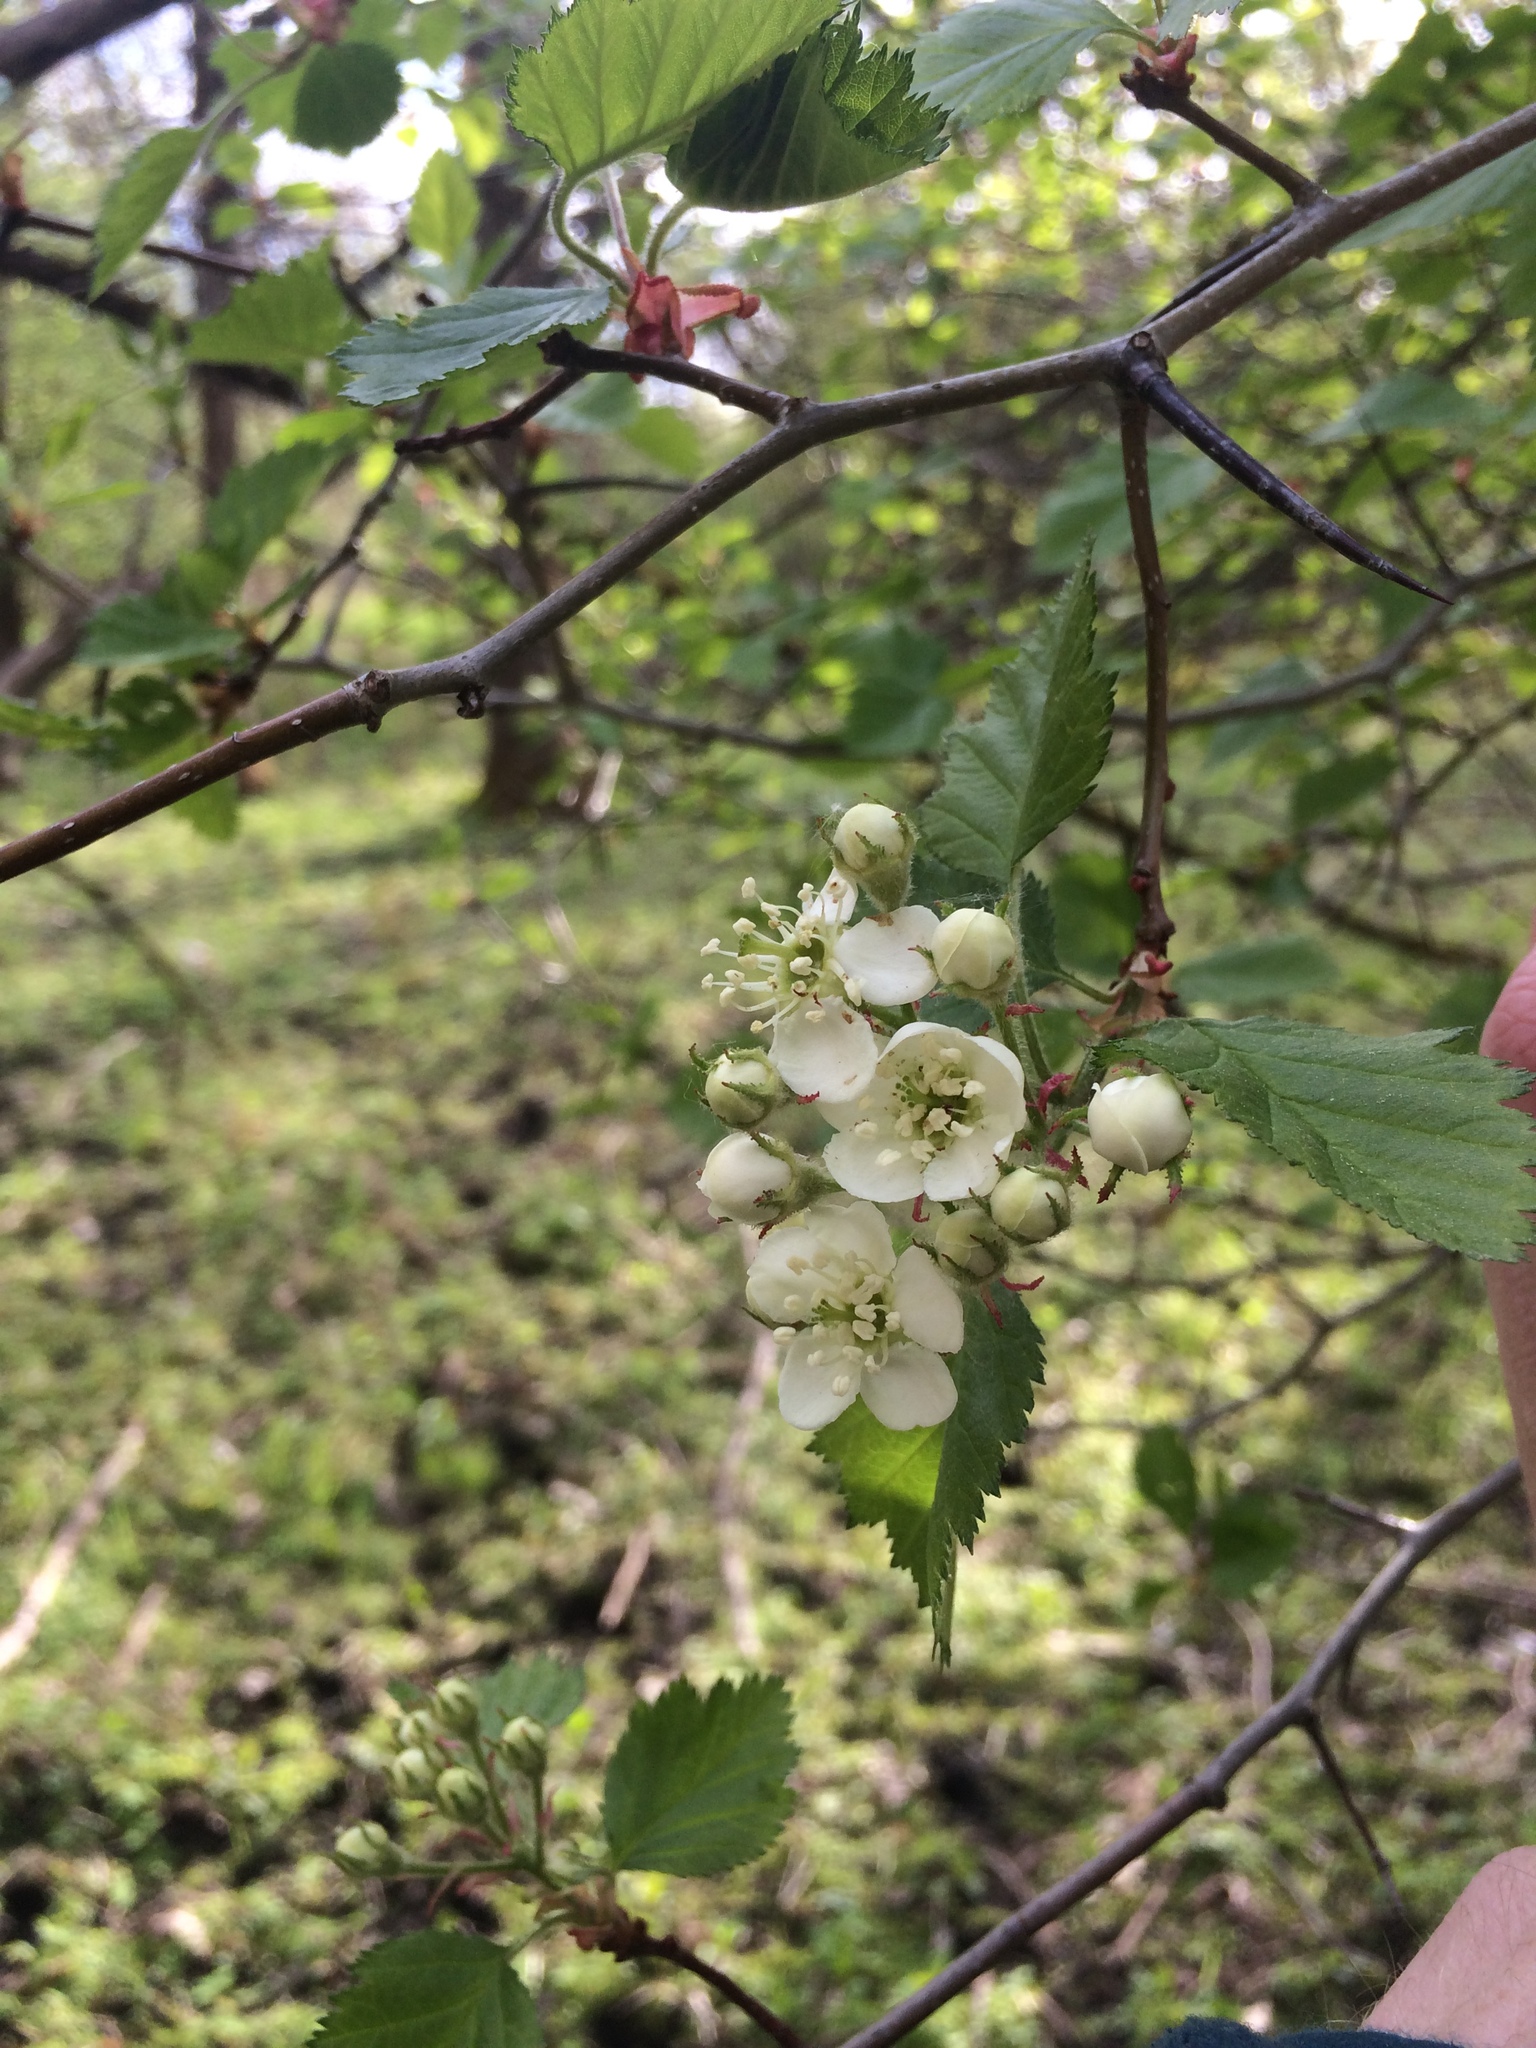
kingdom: Plantae
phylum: Tracheophyta
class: Magnoliopsida
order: Rosales
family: Rosaceae
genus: Crataegus
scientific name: Crataegus submollis
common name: Hairy cockspurthorn
